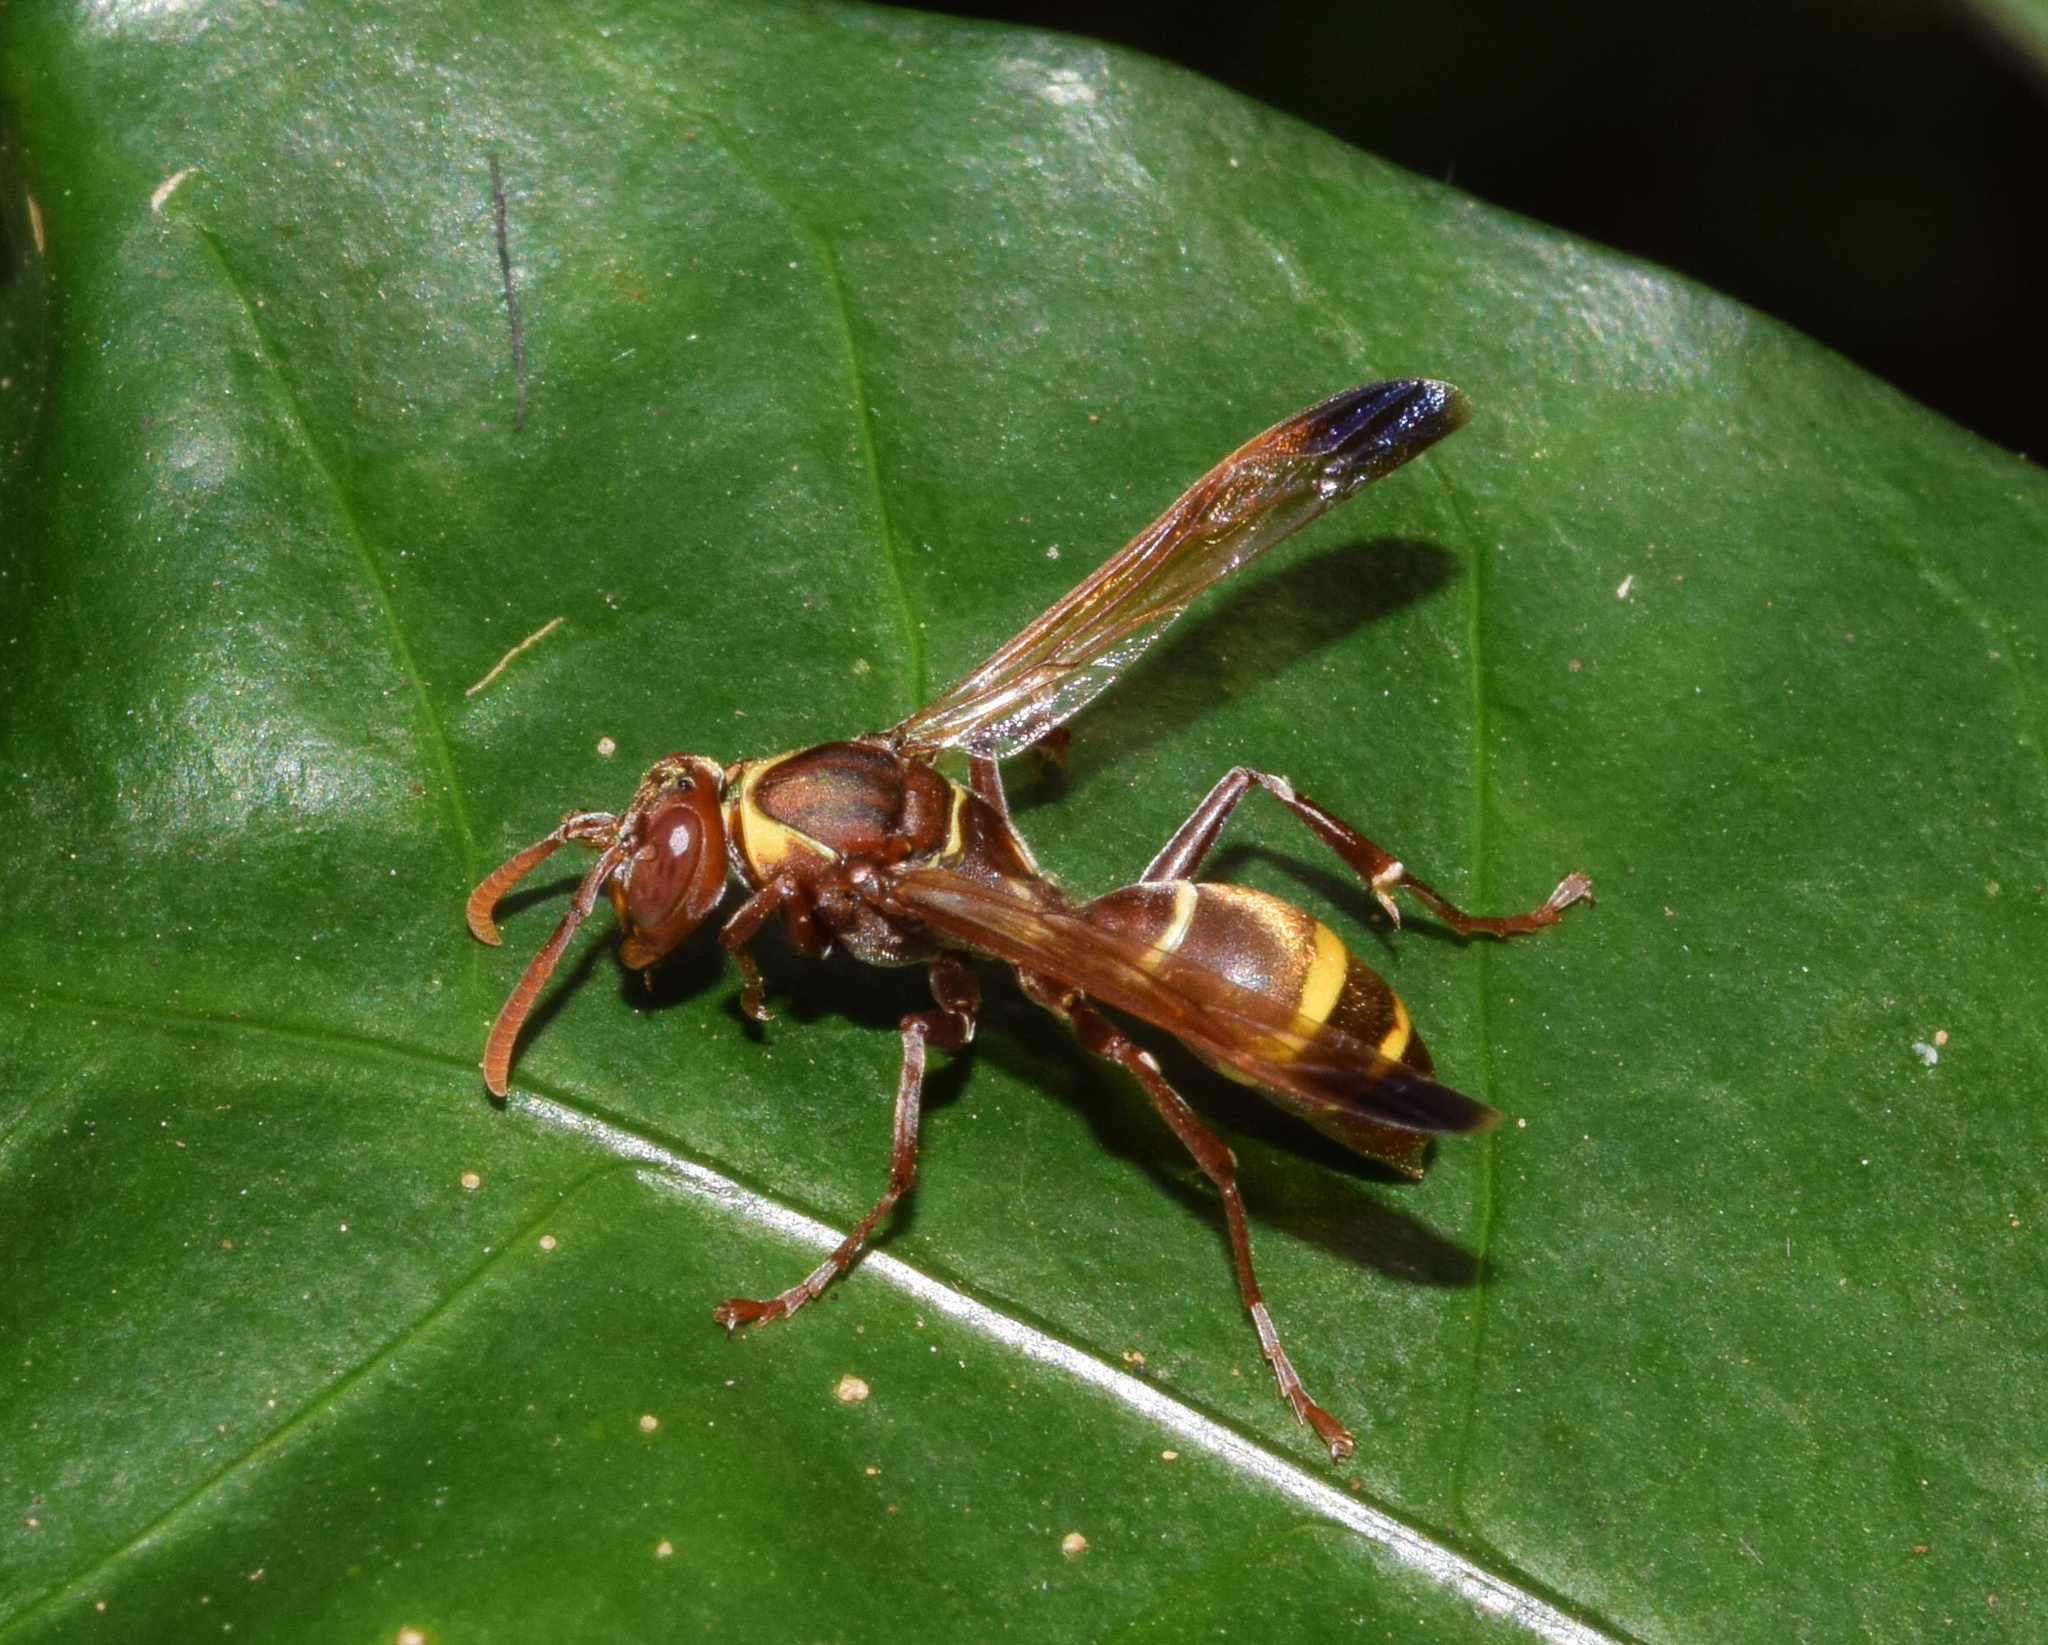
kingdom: Animalia
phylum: Arthropoda
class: Insecta
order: Hymenoptera
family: Eumenidae
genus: Polistes
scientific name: Polistes badius
